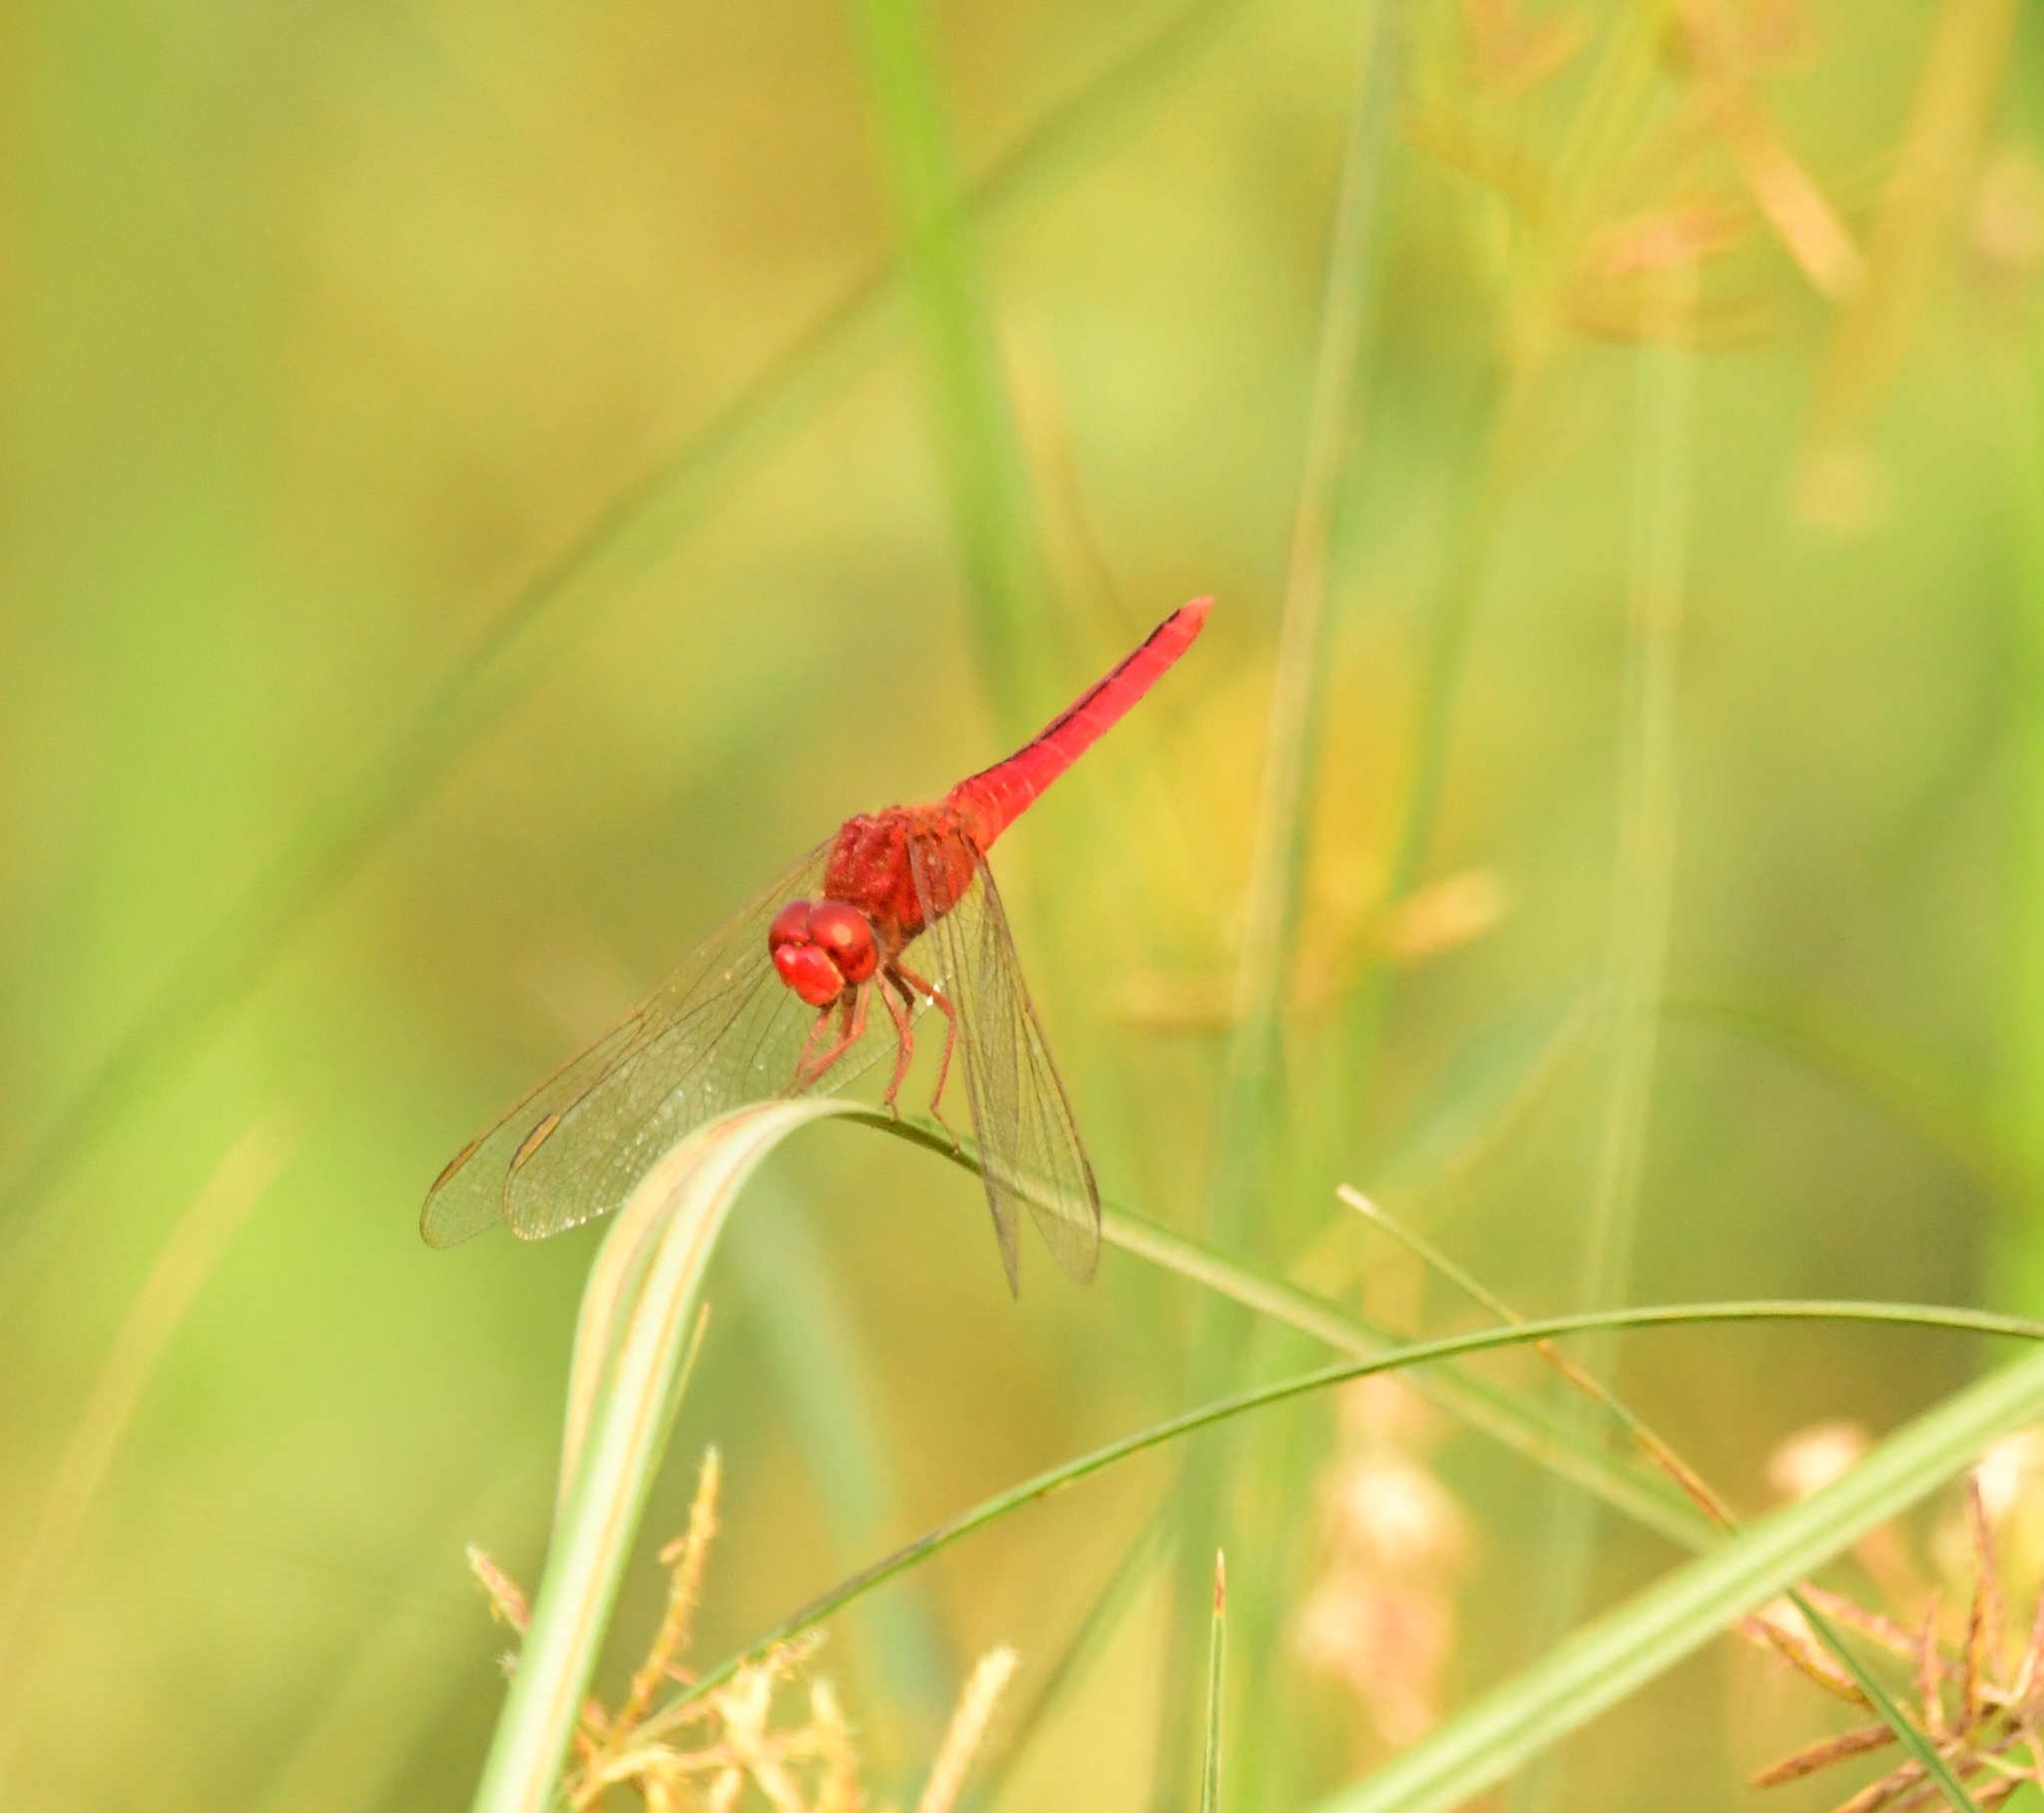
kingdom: Animalia
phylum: Arthropoda
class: Insecta
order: Odonata
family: Libellulidae
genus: Crocothemis
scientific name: Crocothemis servilia
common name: Scarlet skimmer
